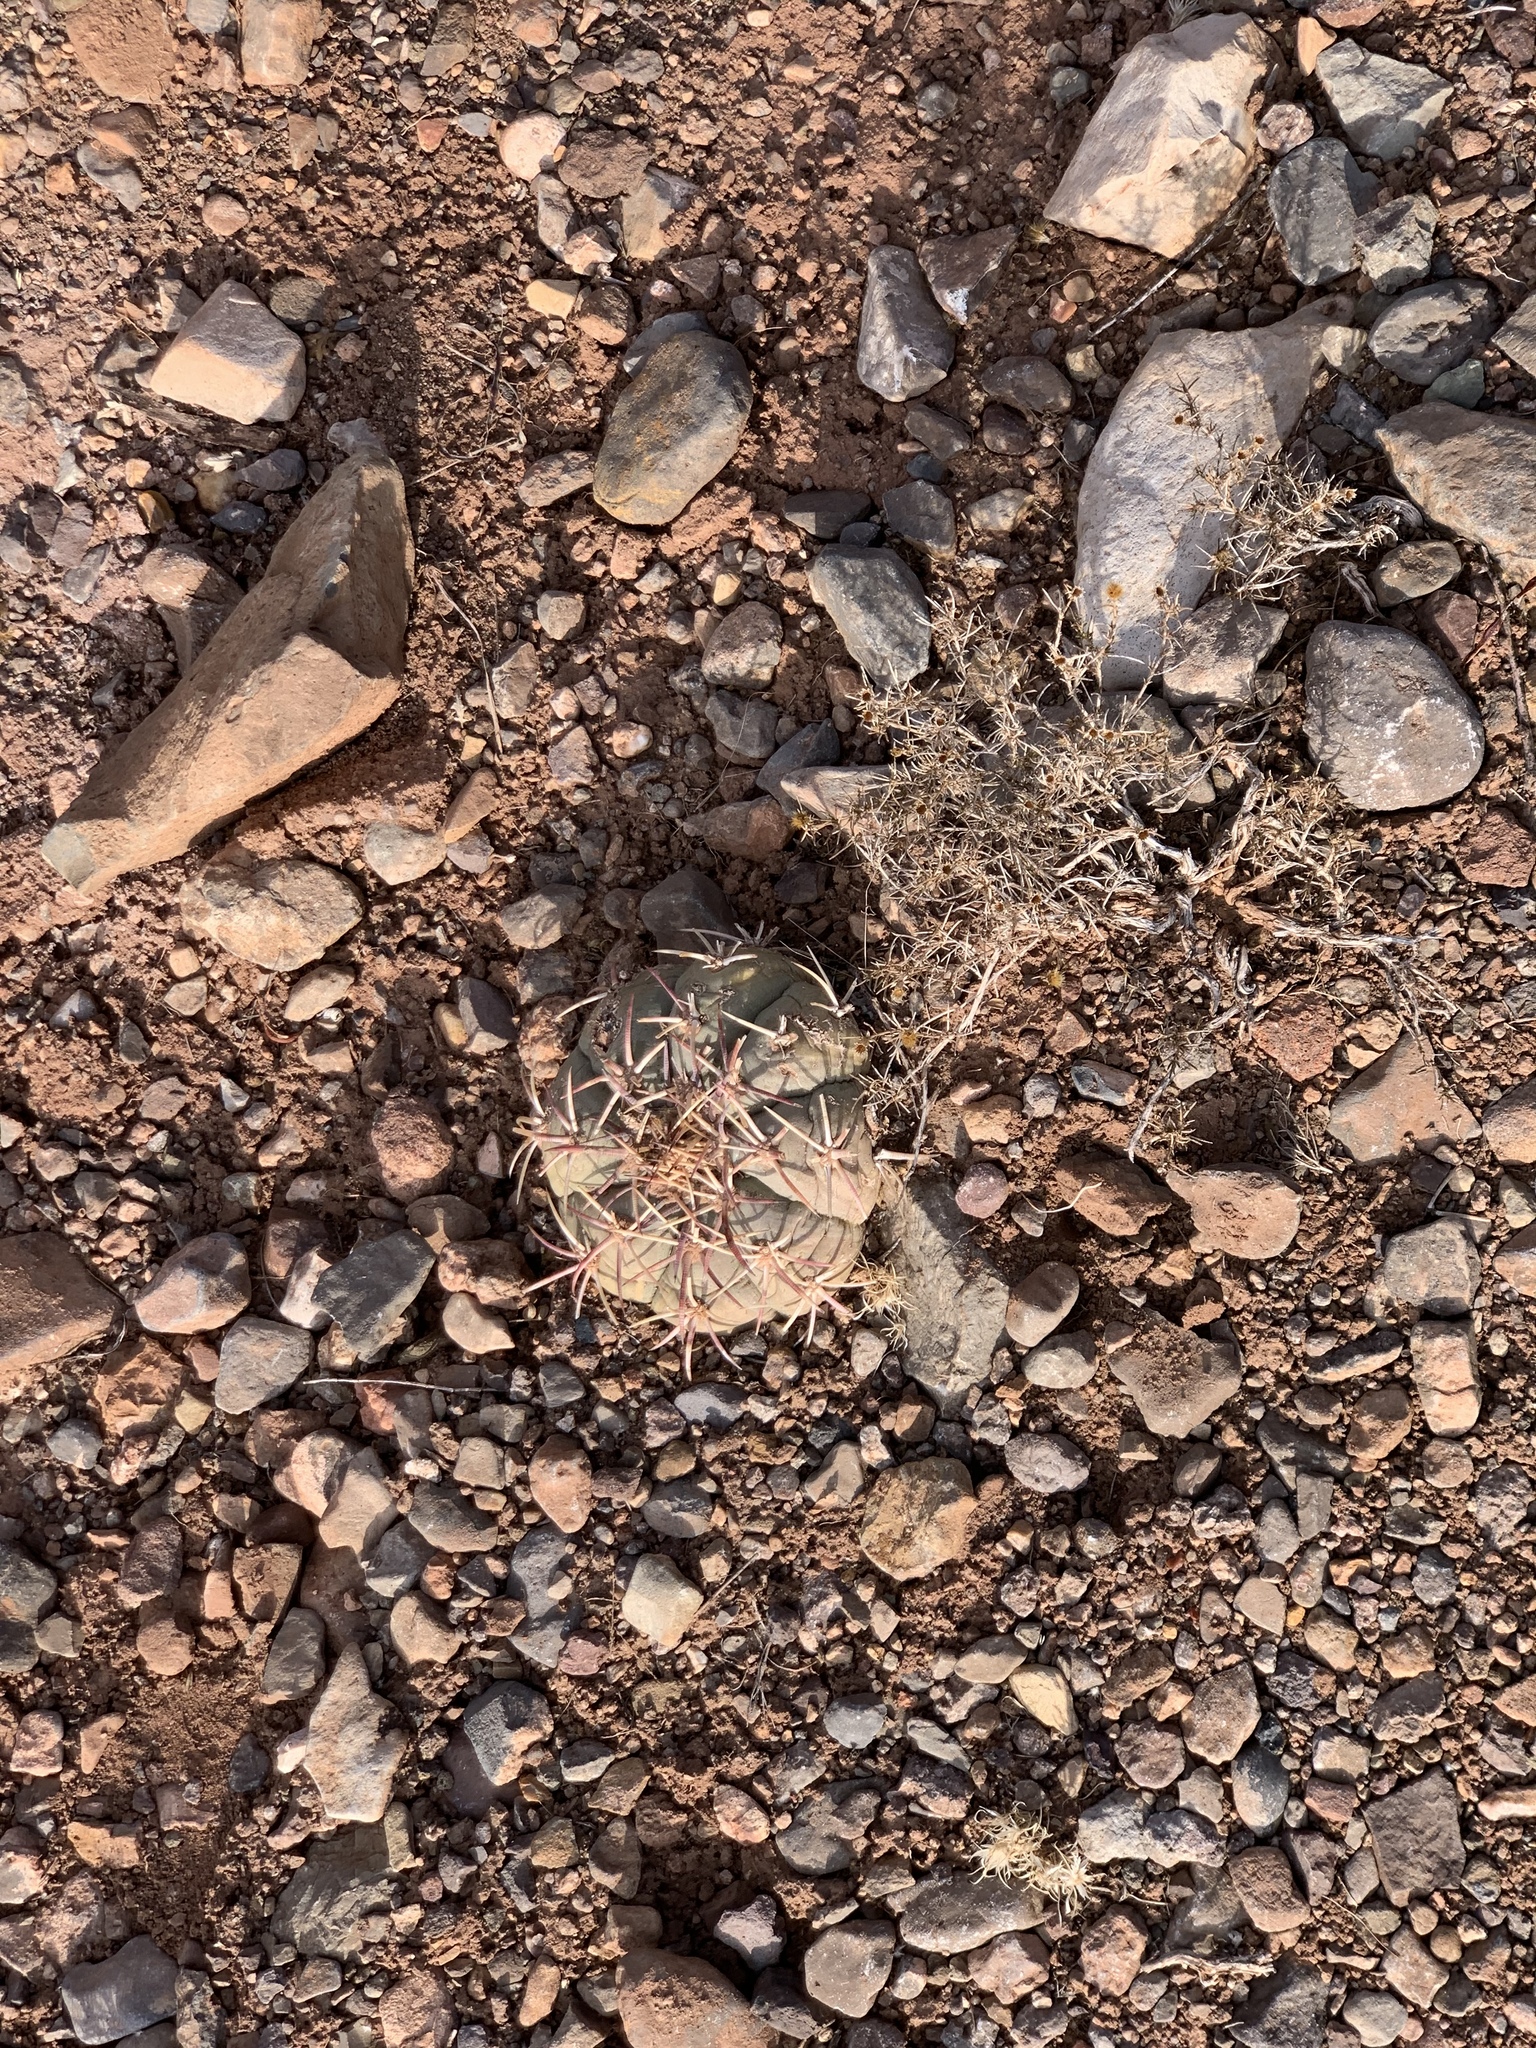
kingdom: Plantae
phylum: Tracheophyta
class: Magnoliopsida
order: Caryophyllales
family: Cactaceae
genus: Echinocactus
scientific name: Echinocactus horizonthalonius
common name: Devilshead
